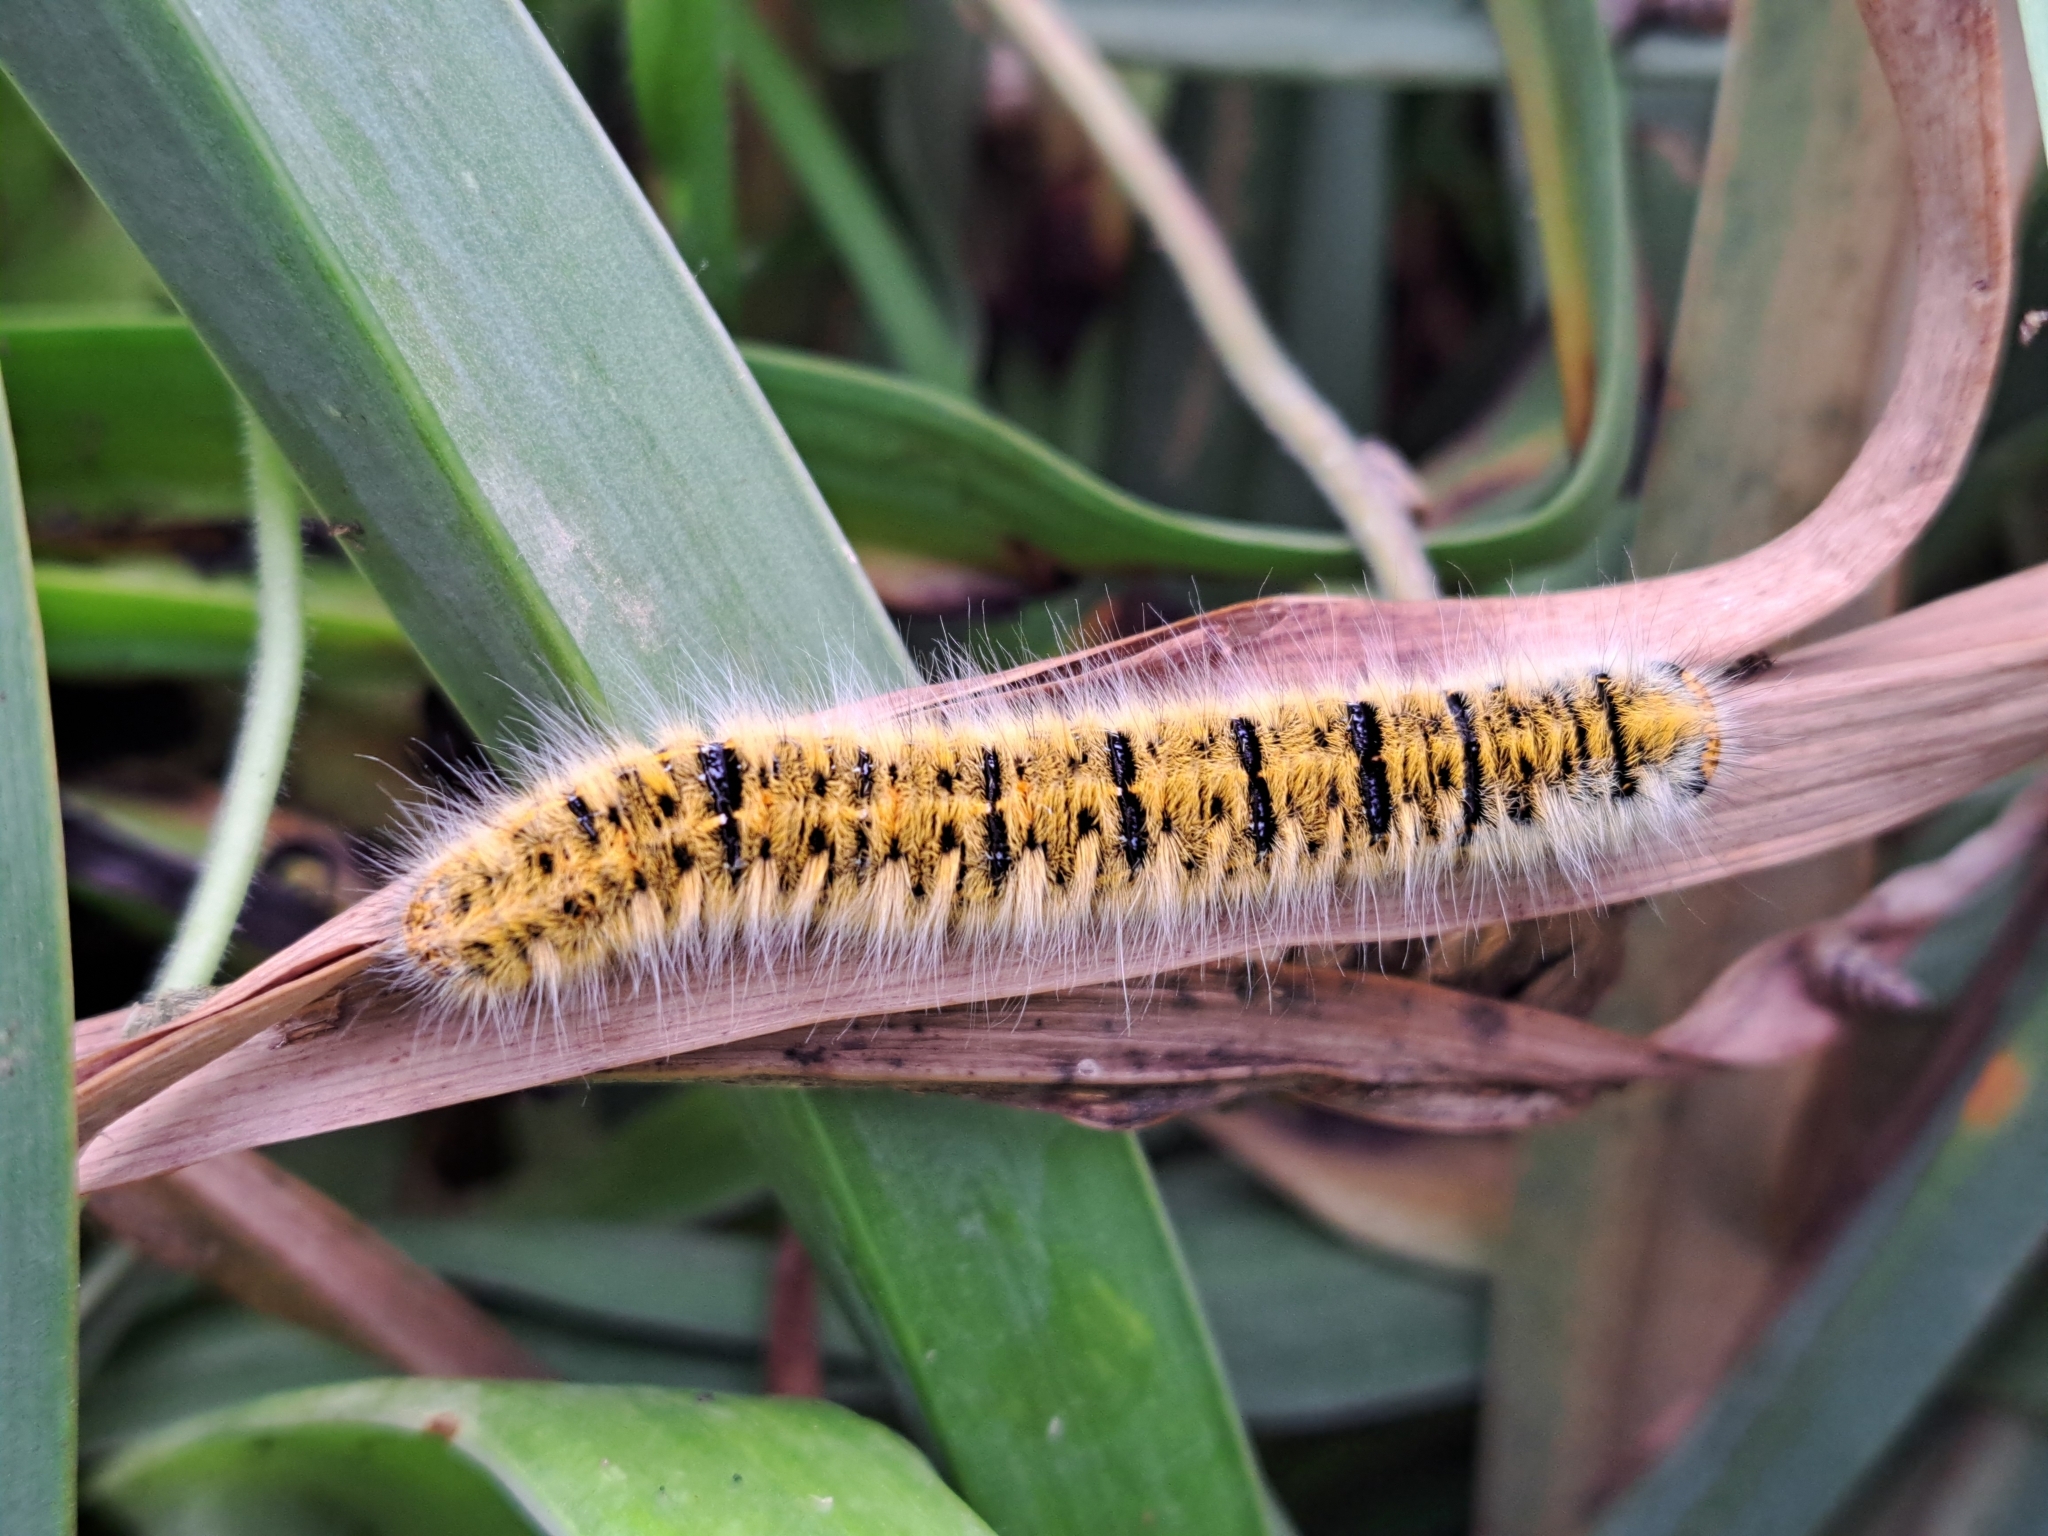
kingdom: Animalia
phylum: Arthropoda
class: Insecta
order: Lepidoptera
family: Lasiocampidae
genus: Lasiocampa
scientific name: Lasiocampa trifolii
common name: Grass eggar
